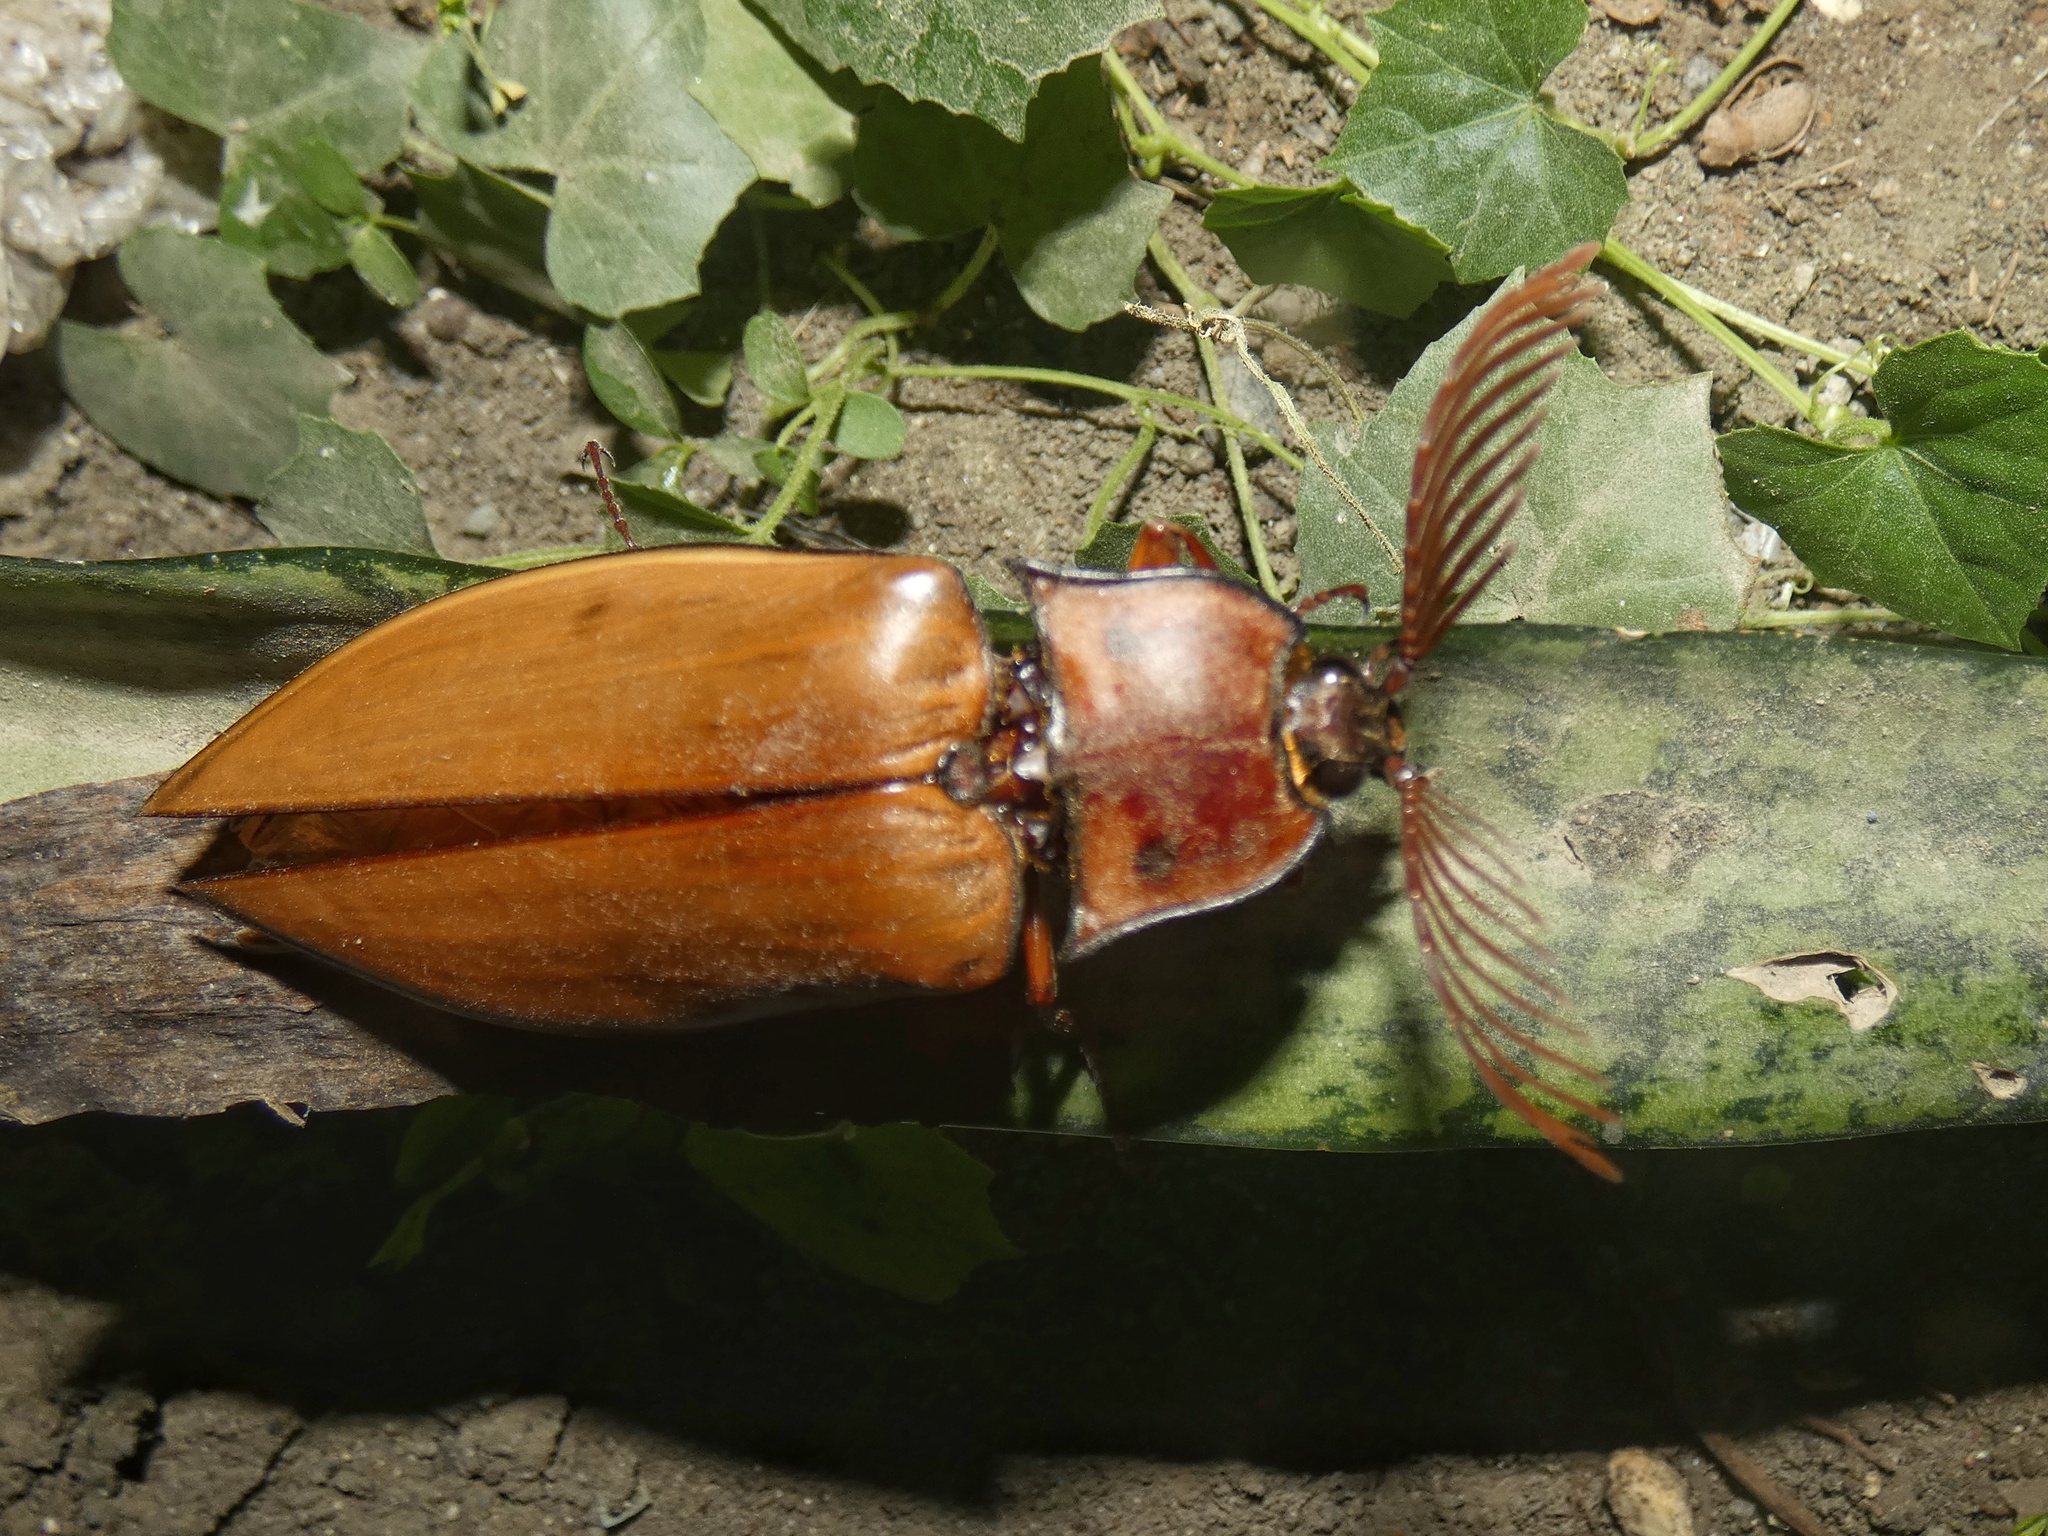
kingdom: Animalia
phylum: Arthropoda
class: Insecta
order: Coleoptera
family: Elateridae
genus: Oxynopterus
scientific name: Oxynopterus mucronatus
